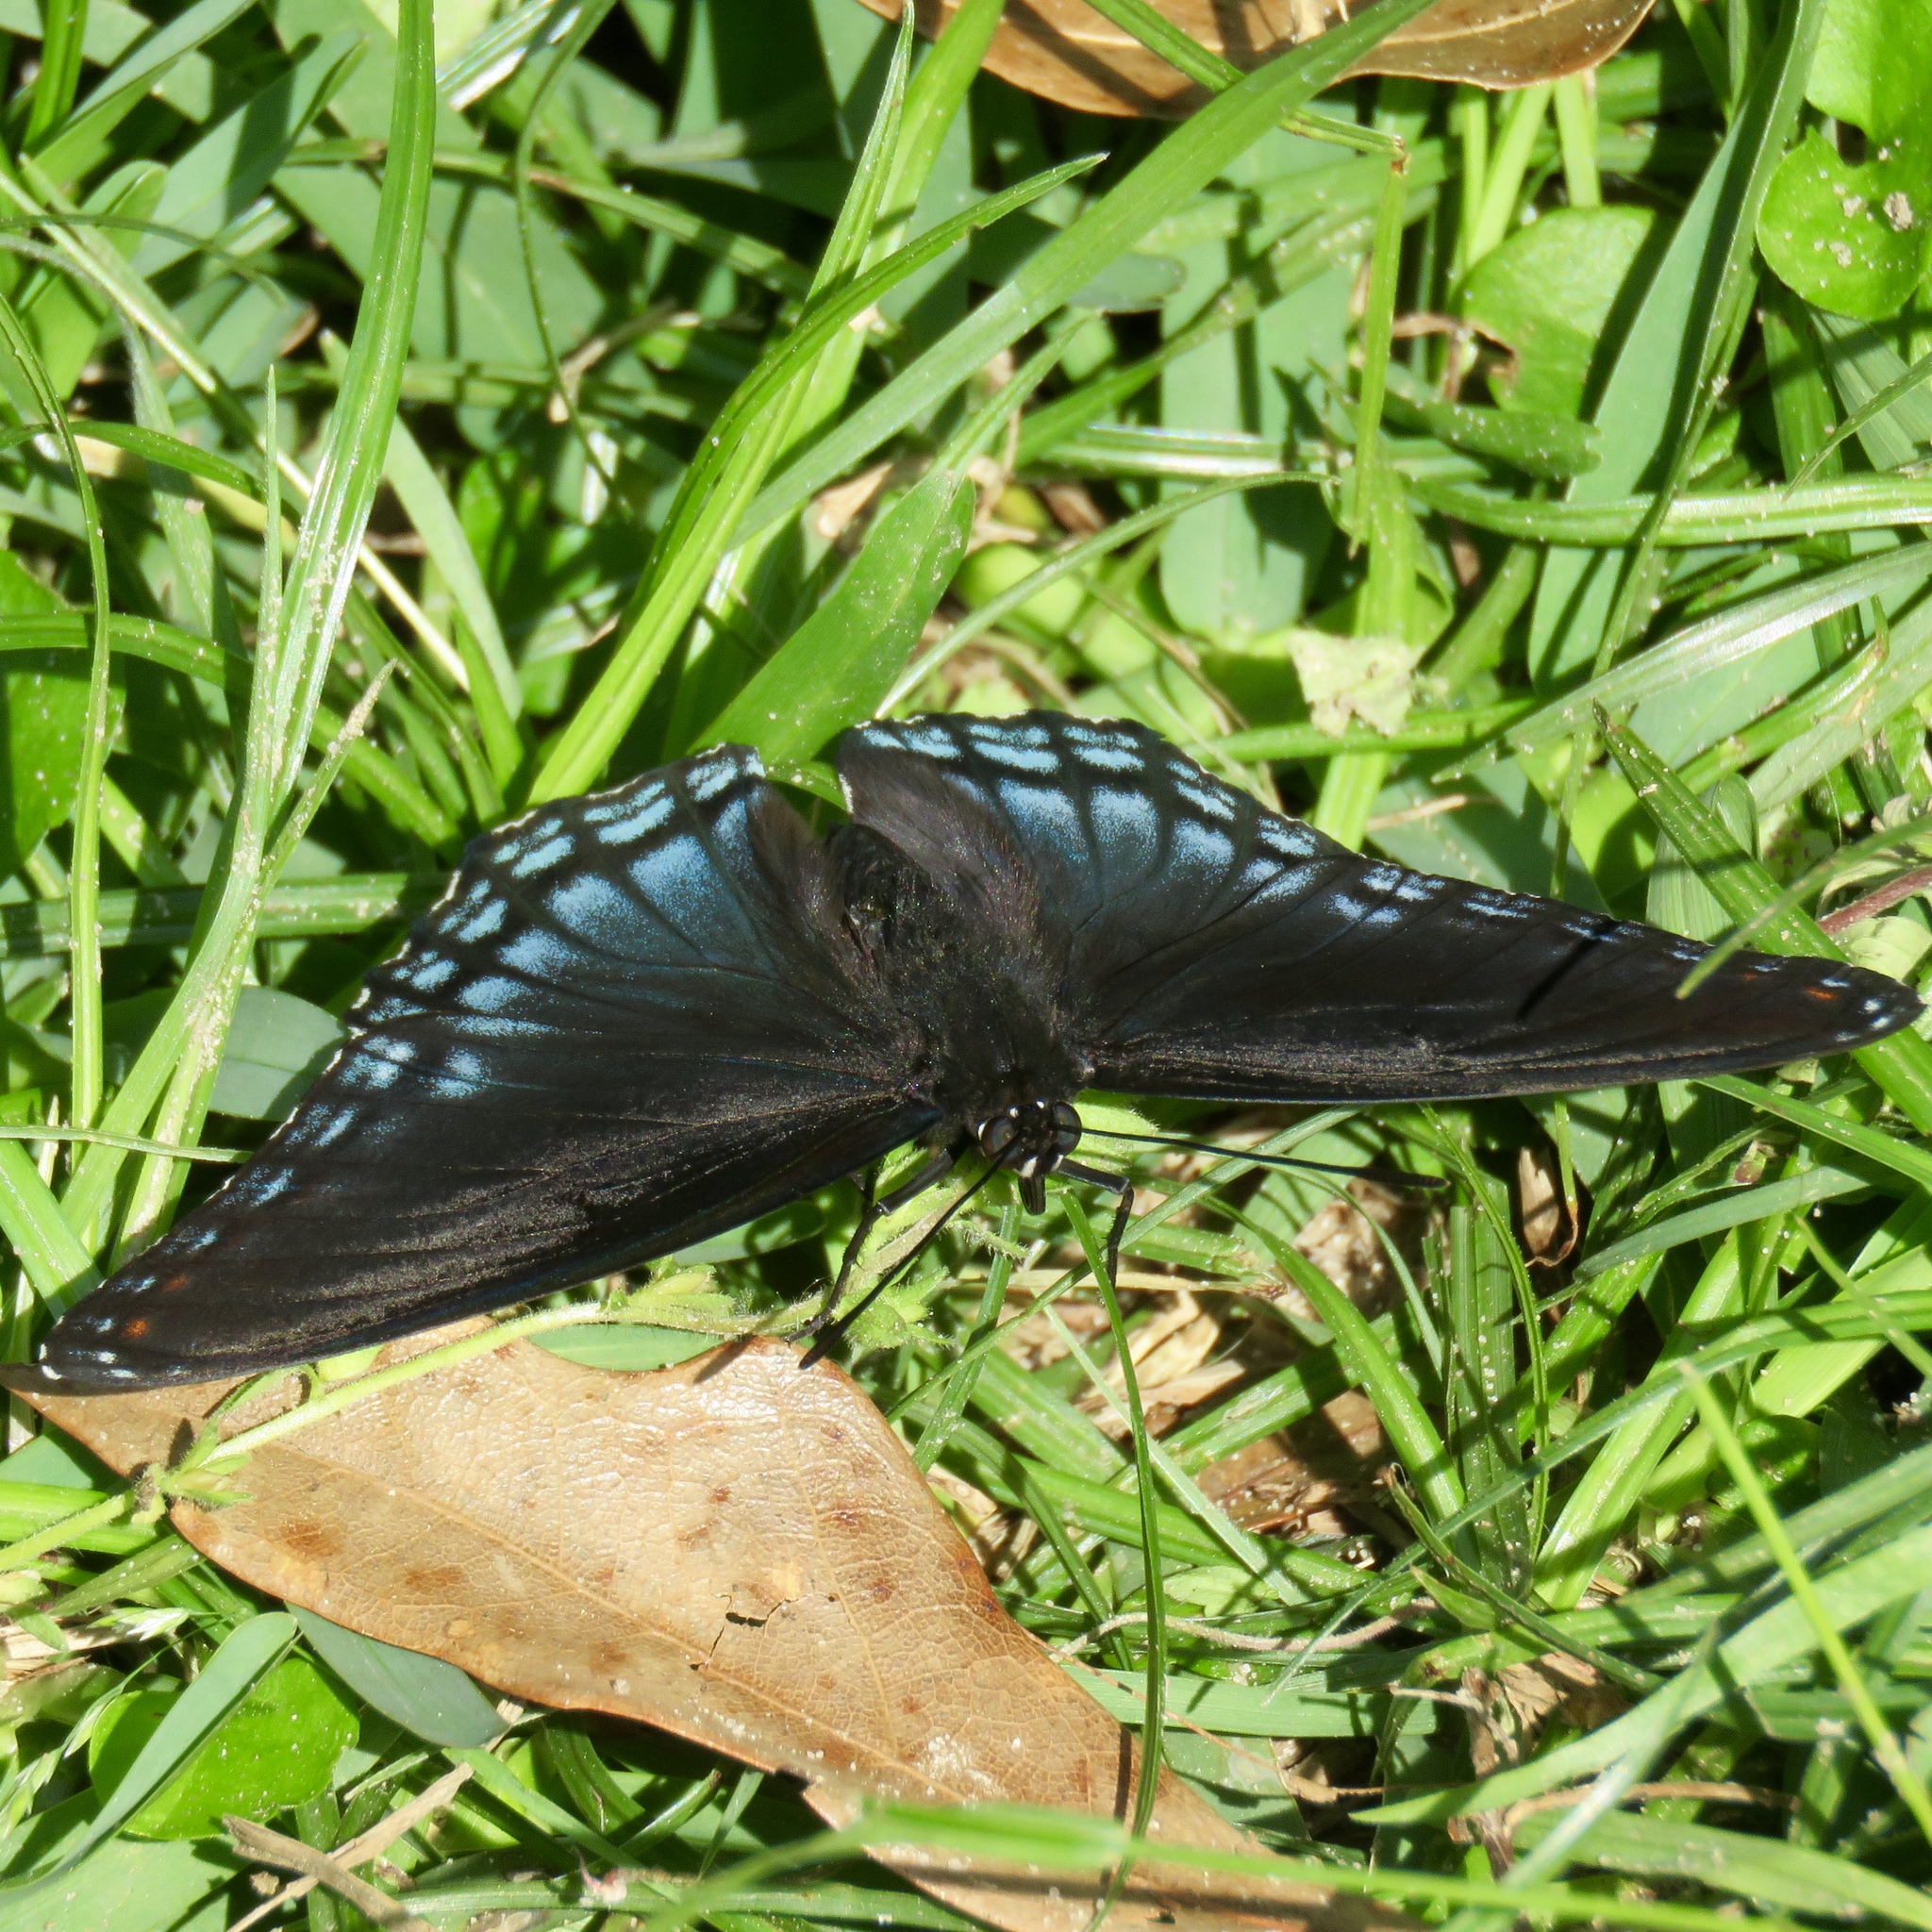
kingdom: Animalia
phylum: Arthropoda
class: Insecta
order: Lepidoptera
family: Nymphalidae
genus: Limenitis
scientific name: Limenitis arthemis
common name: Red-spotted admiral
